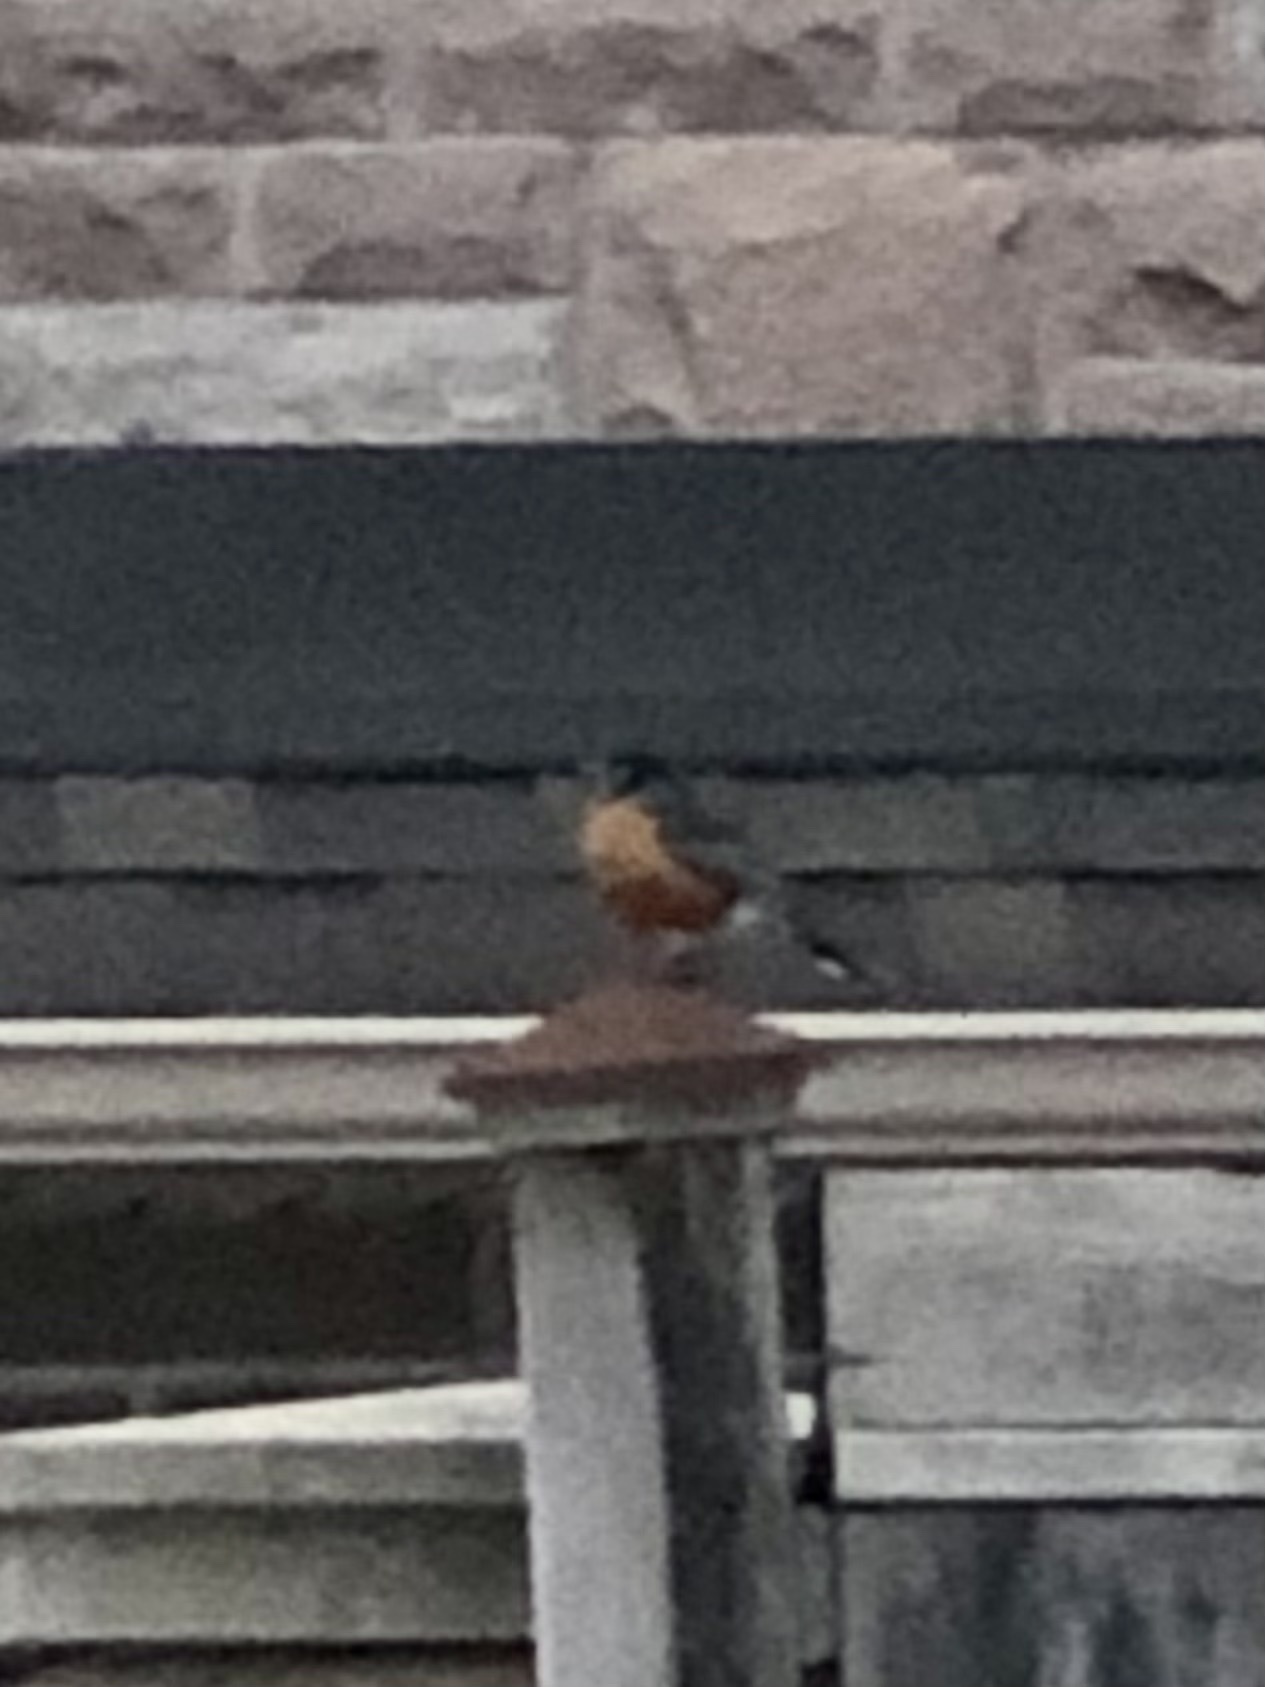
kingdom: Animalia
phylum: Chordata
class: Aves
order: Passeriformes
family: Turdidae
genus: Turdus
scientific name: Turdus migratorius
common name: American robin
